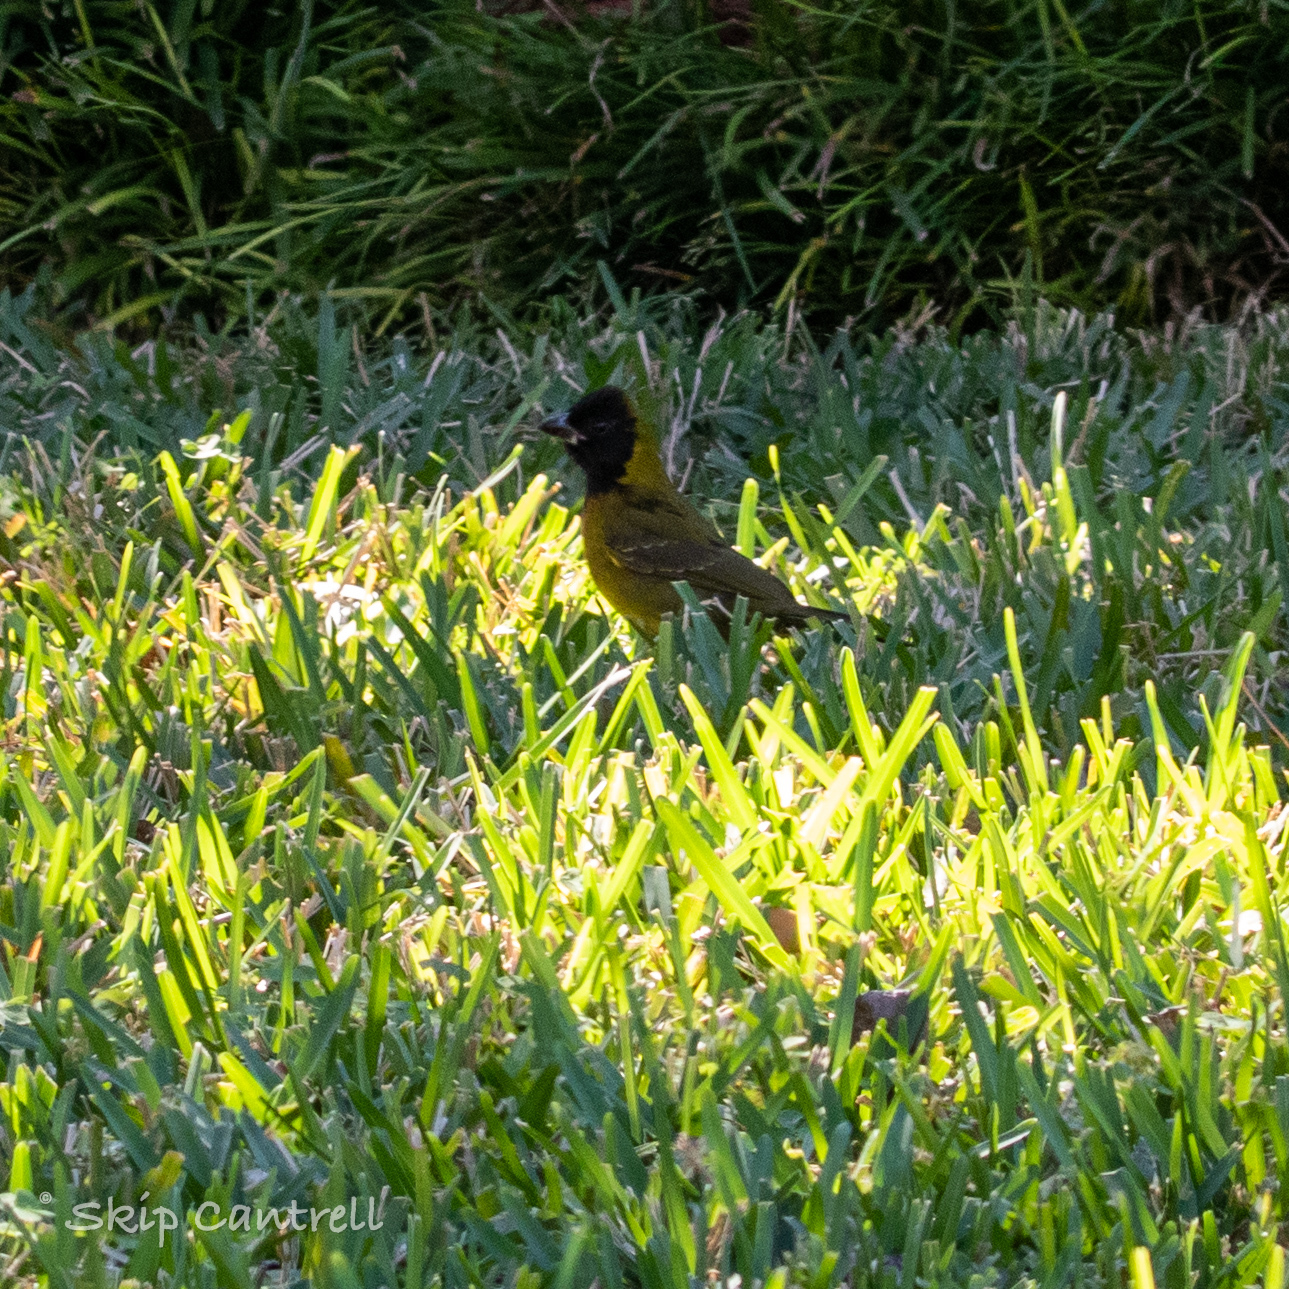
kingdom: Animalia
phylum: Chordata
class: Aves
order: Passeriformes
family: Cardinalidae
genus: Rhodothraupis
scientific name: Rhodothraupis celaeno
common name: Crimson-collared grosbeak
